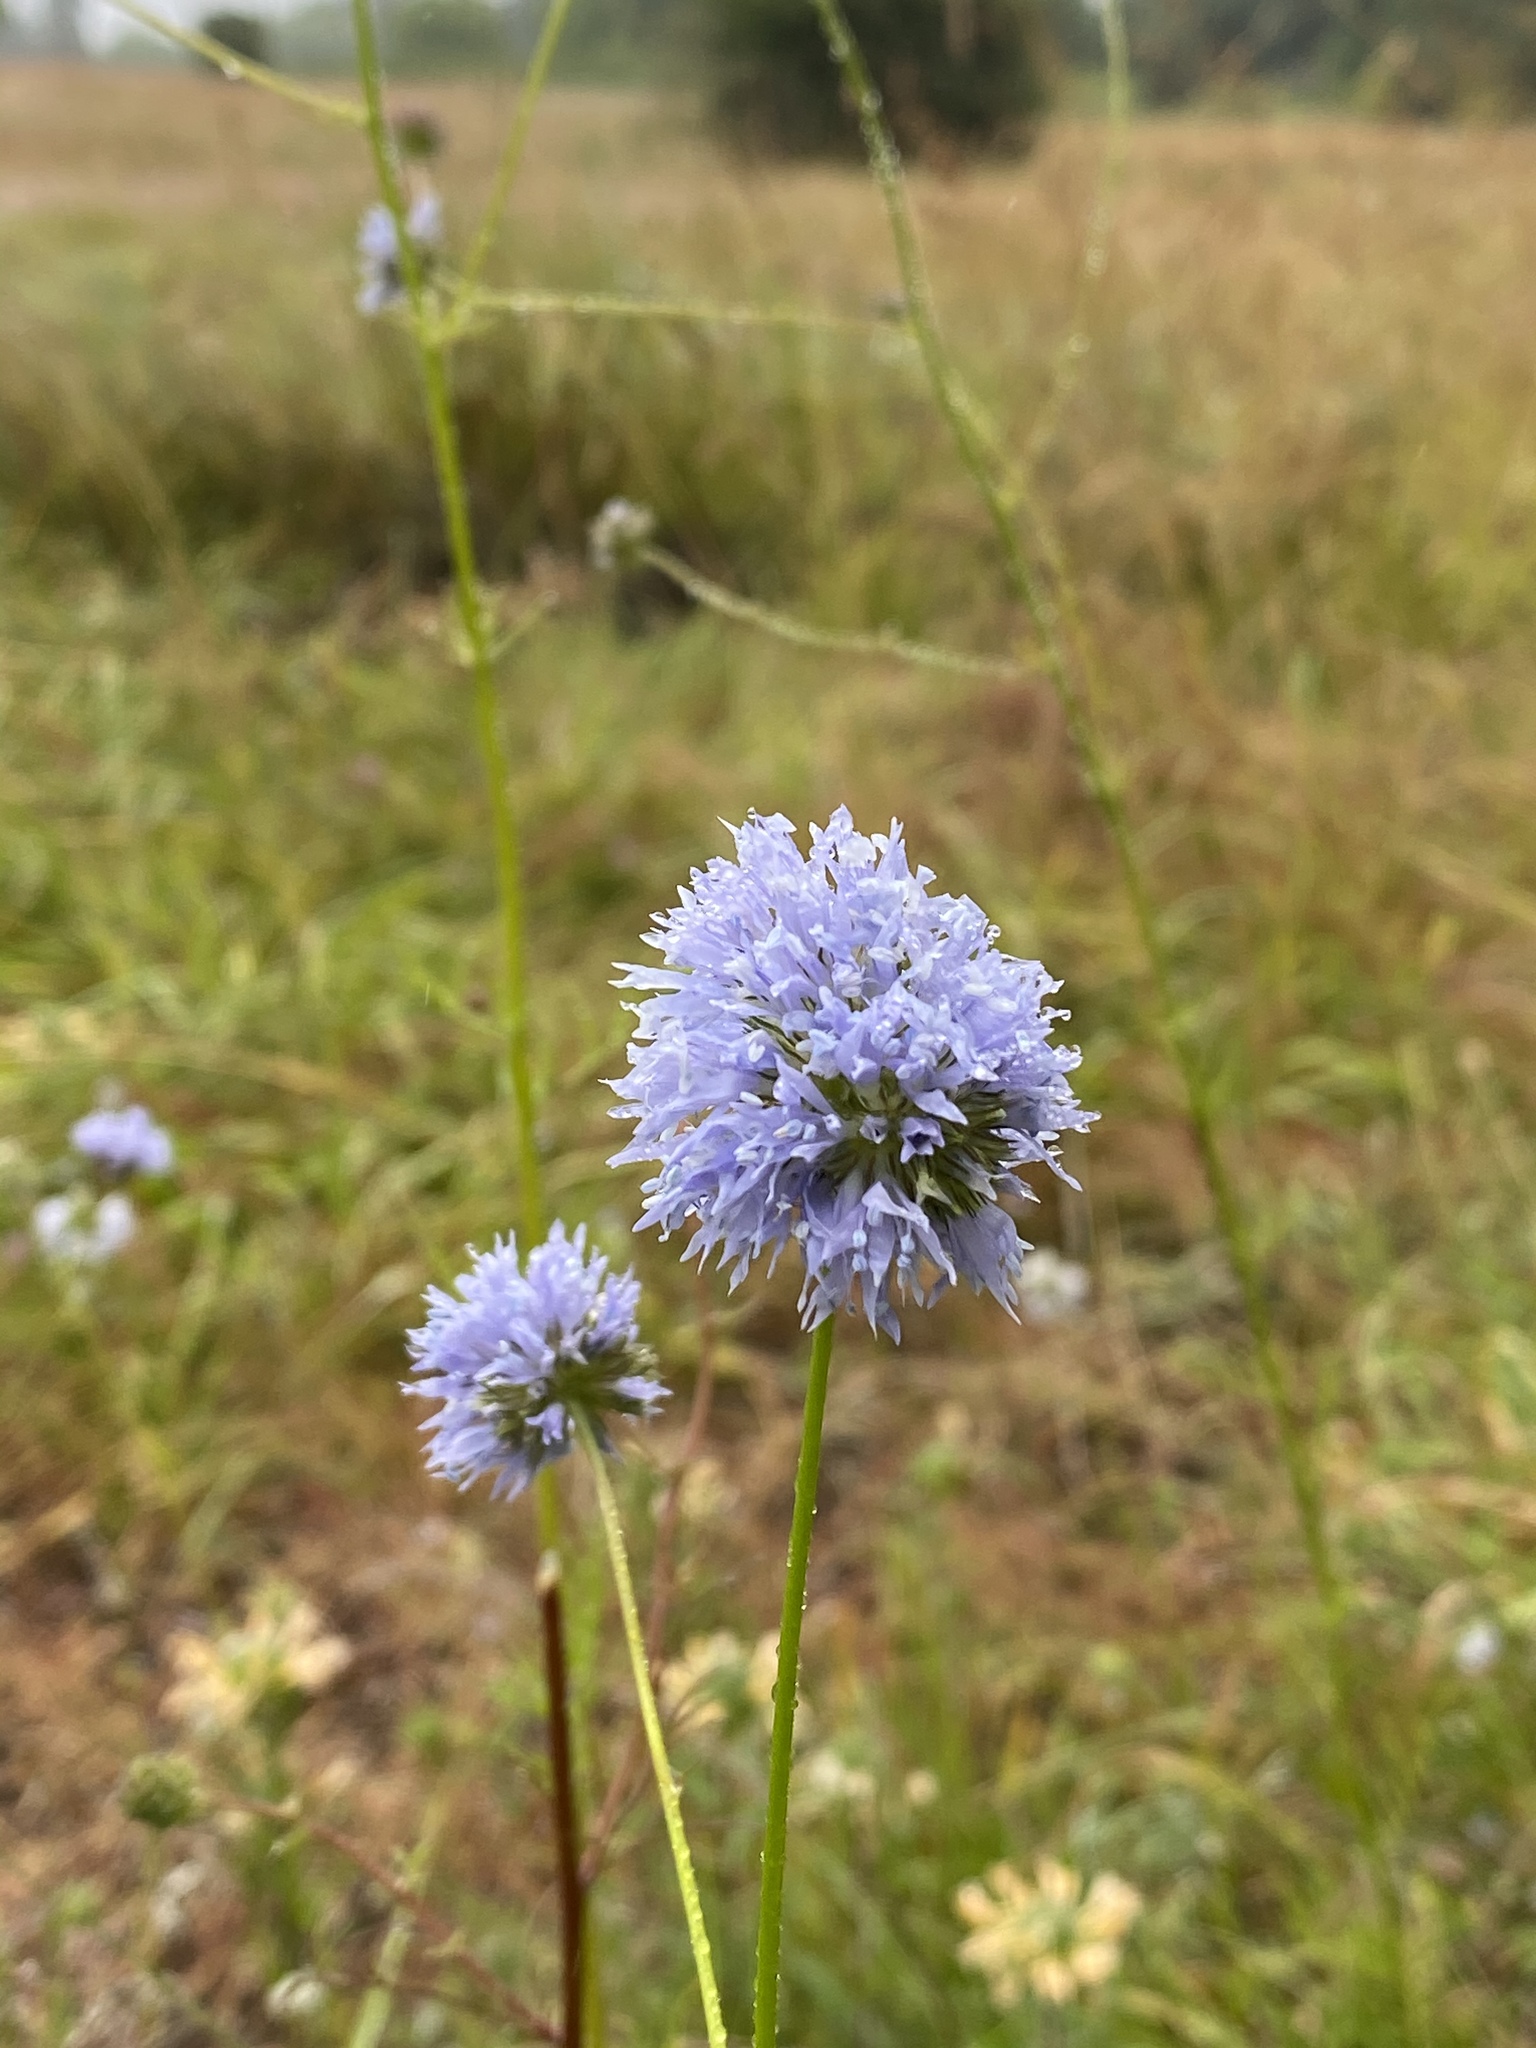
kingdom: Plantae
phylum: Tracheophyta
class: Magnoliopsida
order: Ericales
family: Polemoniaceae
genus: Gilia
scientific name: Gilia capitata
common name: Bluehead gilia
